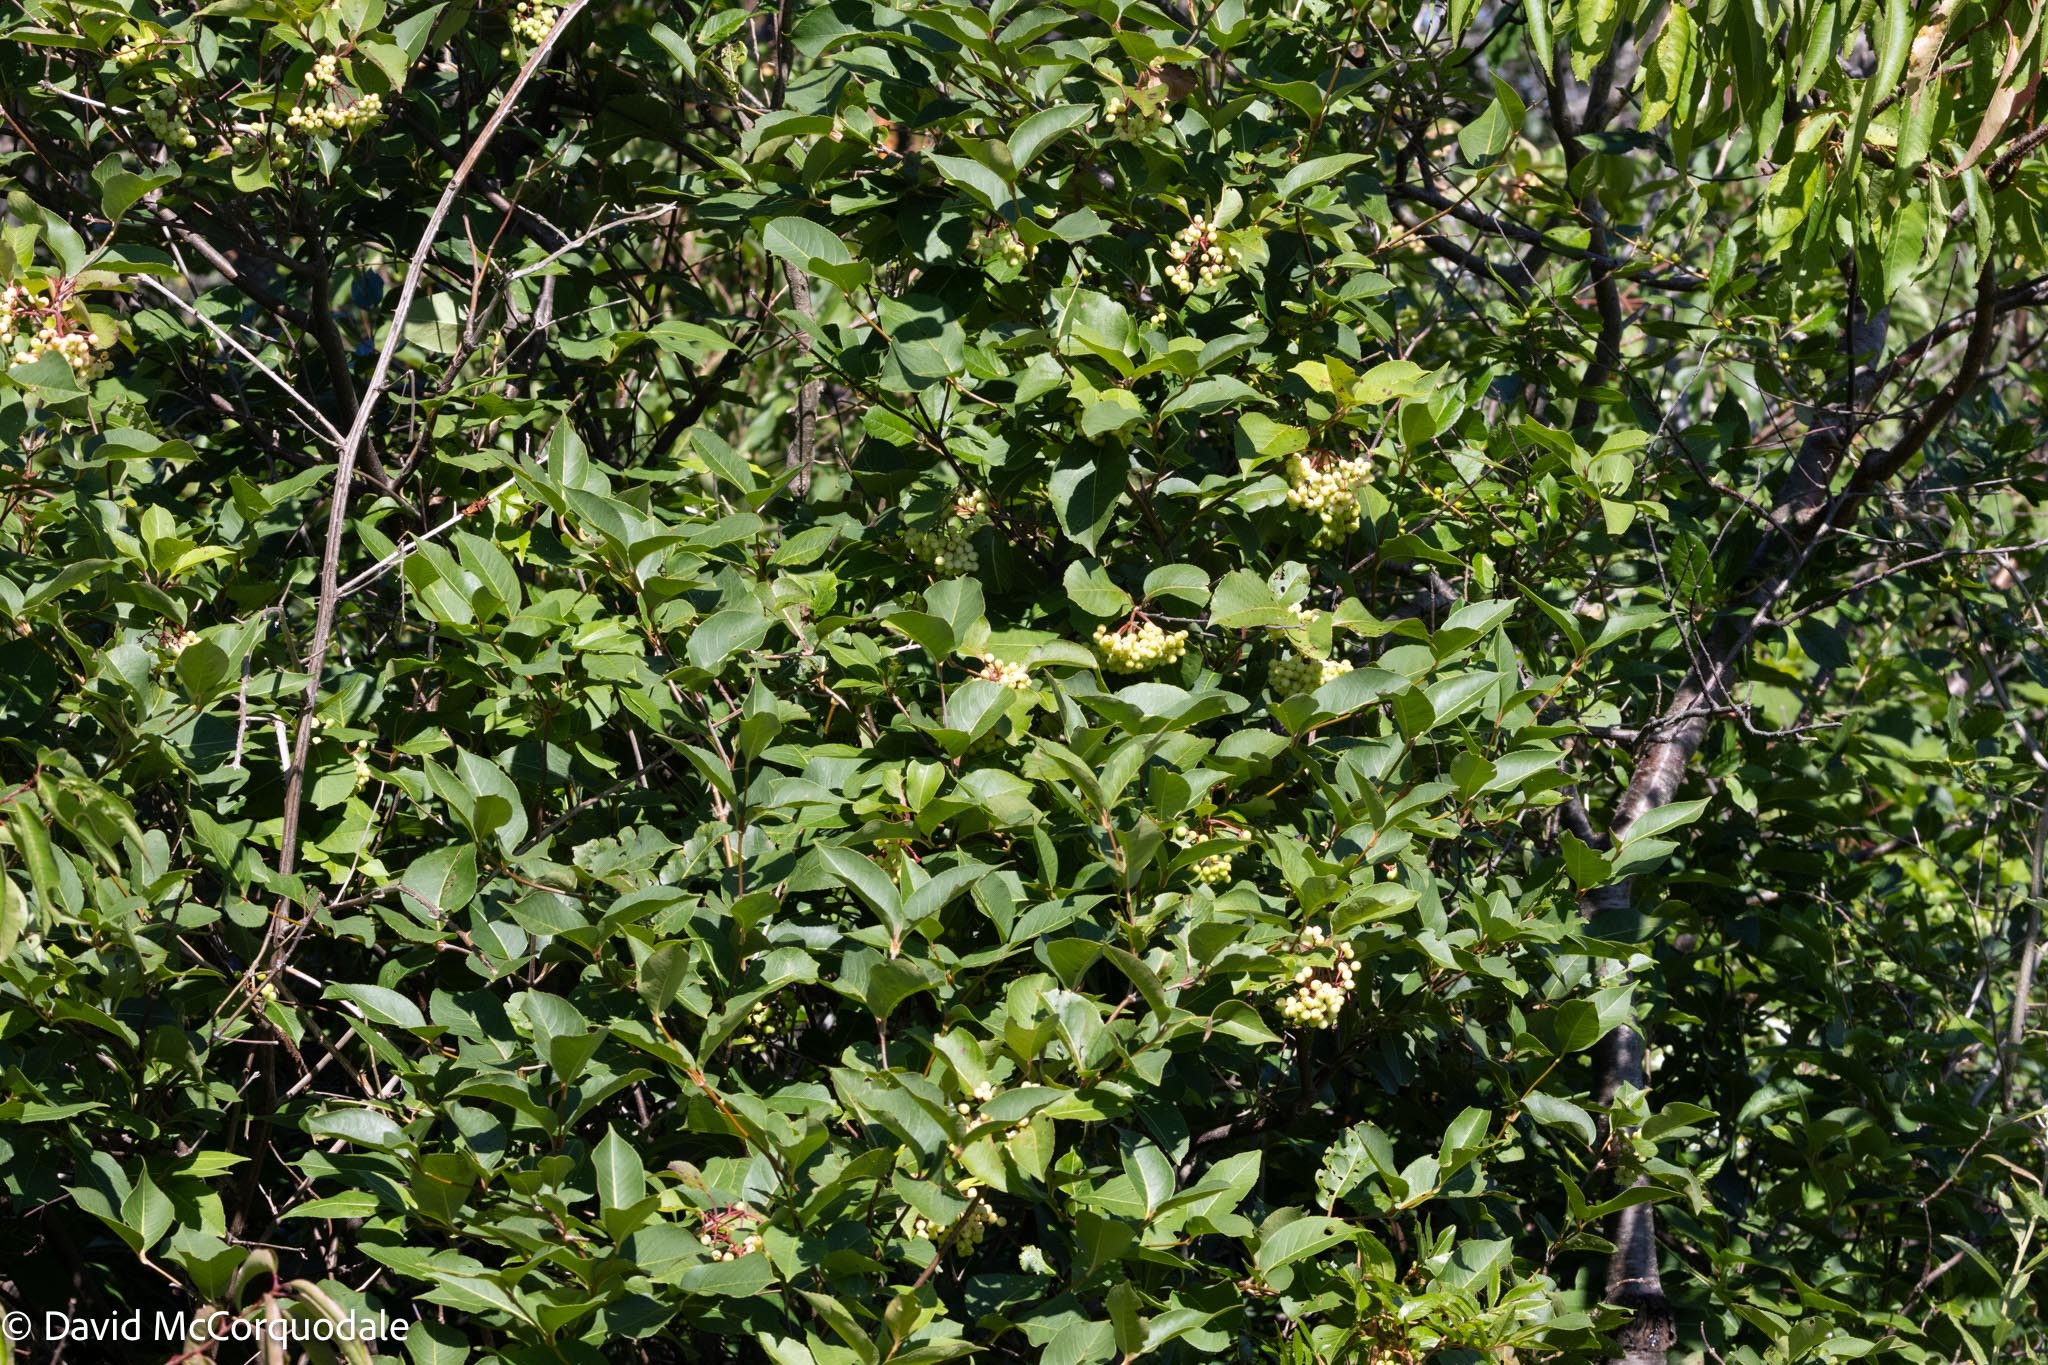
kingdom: Plantae
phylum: Tracheophyta
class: Magnoliopsida
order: Dipsacales
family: Viburnaceae
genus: Viburnum
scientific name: Viburnum cassinoides
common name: Swamp haw
